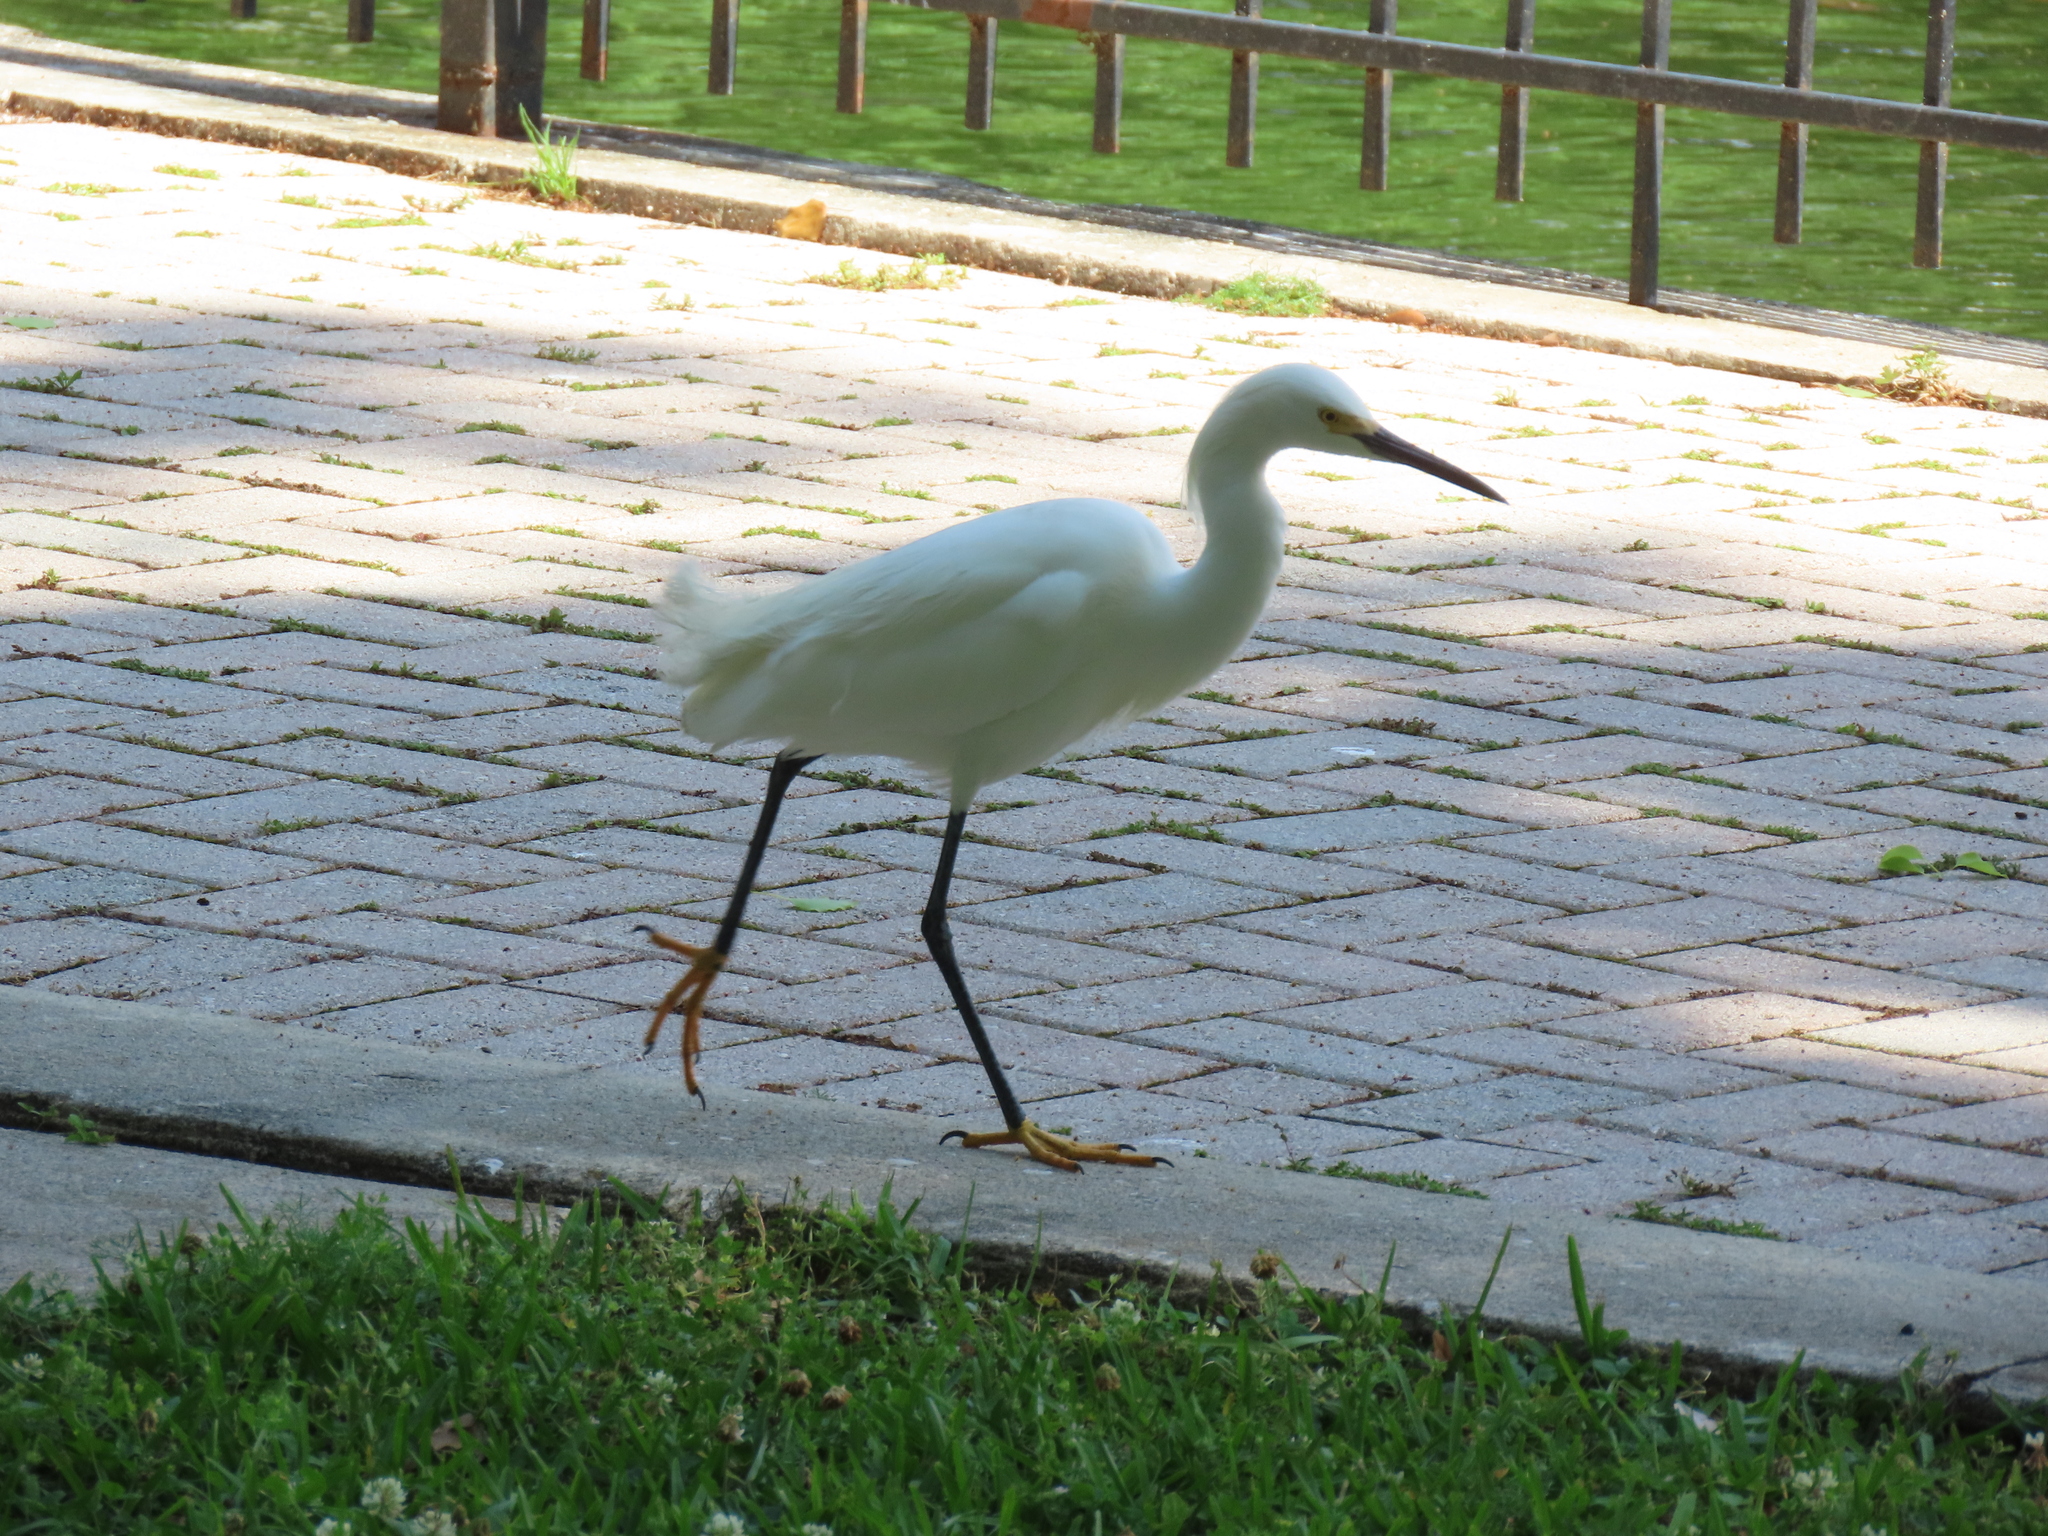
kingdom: Animalia
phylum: Chordata
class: Aves
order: Pelecaniformes
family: Ardeidae
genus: Egretta
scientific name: Egretta thula
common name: Snowy egret
